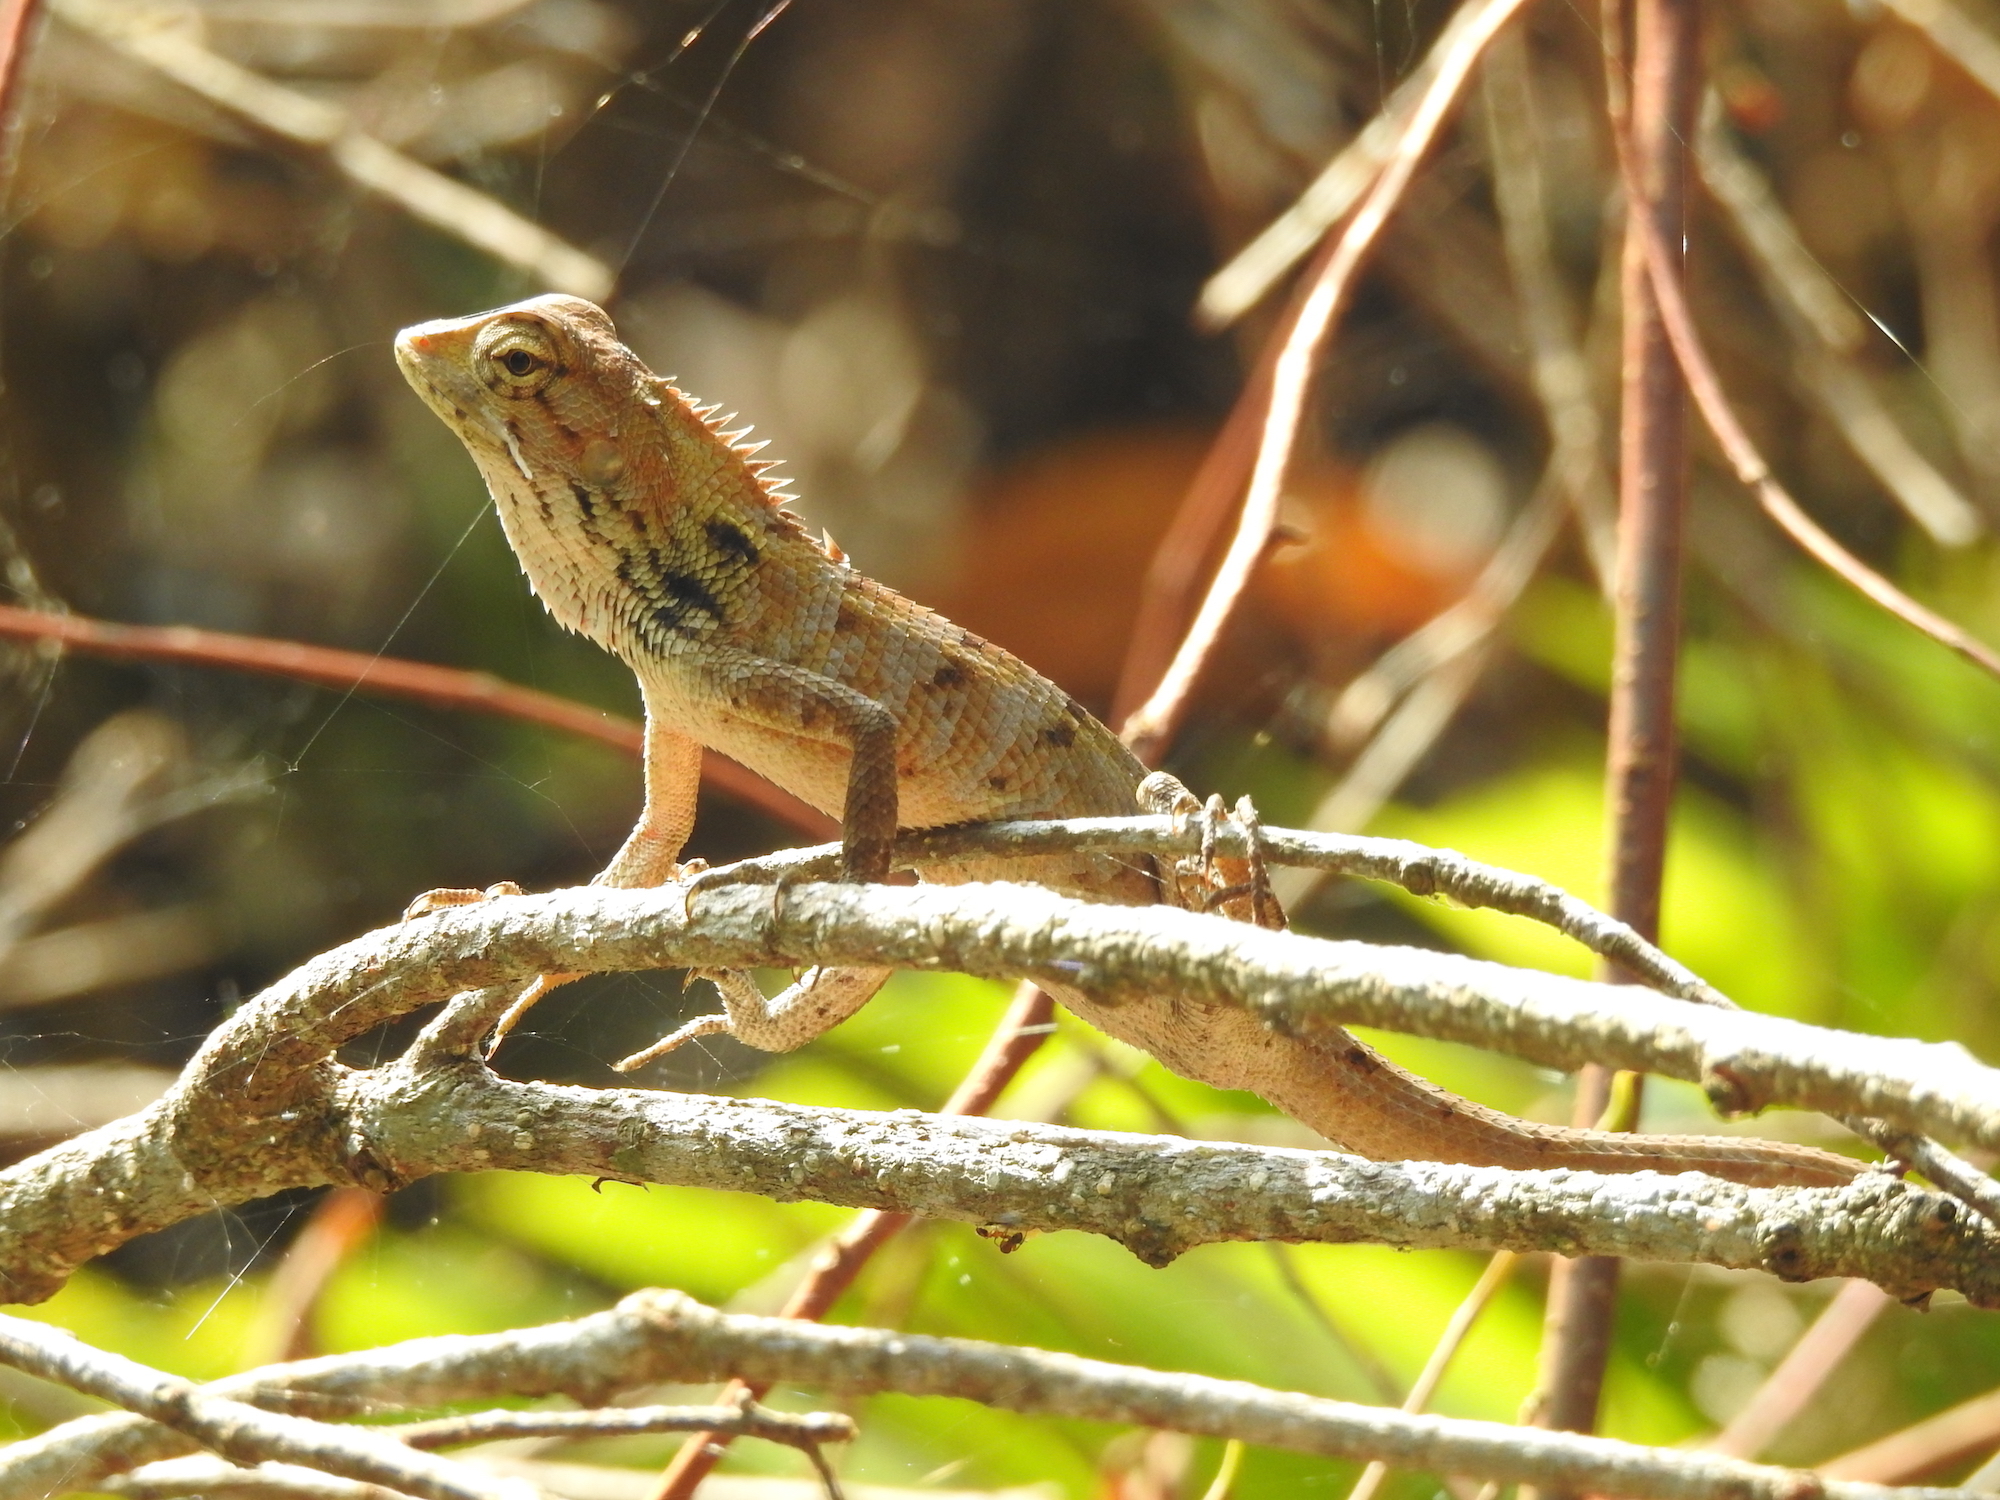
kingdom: Animalia
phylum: Chordata
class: Squamata
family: Agamidae
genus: Calotes
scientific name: Calotes versicolor
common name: Oriental garden lizard
